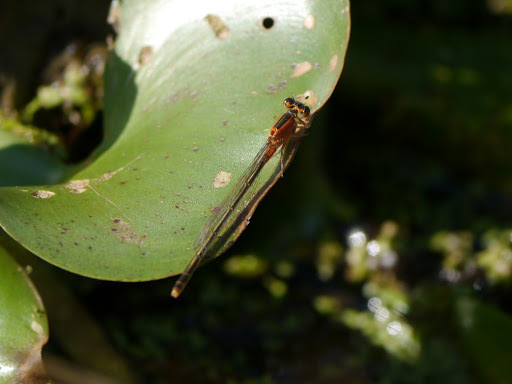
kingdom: Animalia
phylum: Arthropoda
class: Insecta
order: Odonata
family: Coenagrionidae
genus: Ischnura
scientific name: Ischnura ramburii
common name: Rambur's forktail
